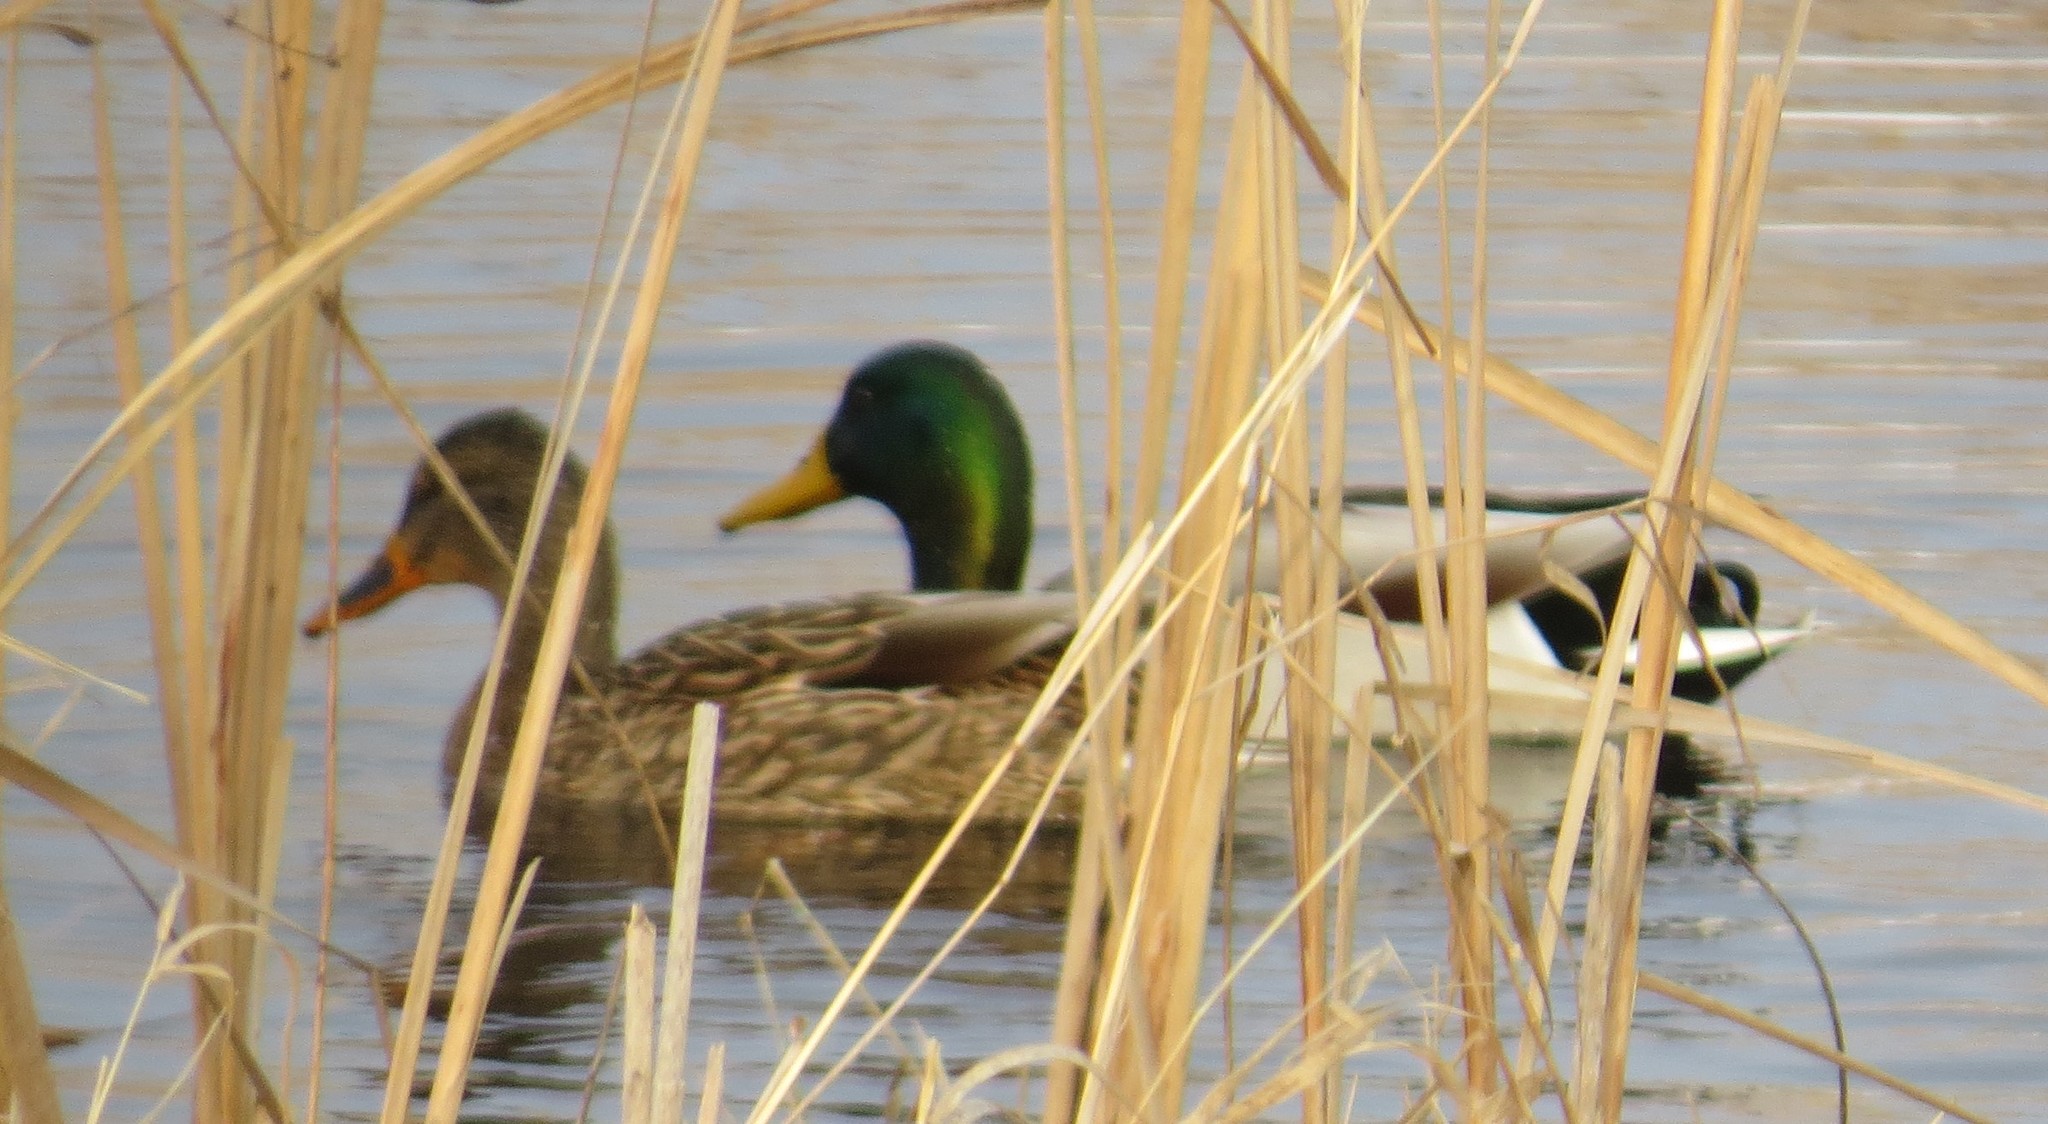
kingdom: Animalia
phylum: Chordata
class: Aves
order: Anseriformes
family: Anatidae
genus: Anas
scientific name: Anas platyrhynchos
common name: Mallard
